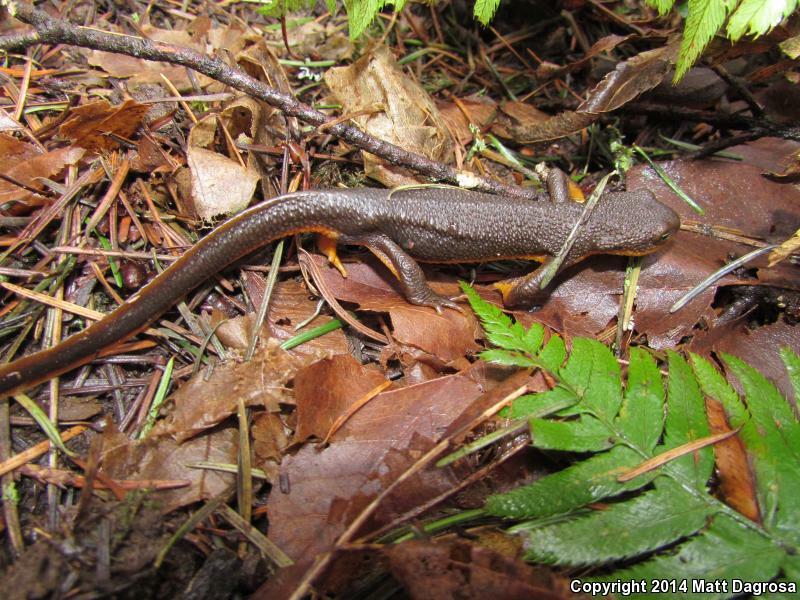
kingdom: Animalia
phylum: Chordata
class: Amphibia
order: Caudata
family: Salamandridae
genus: Taricha
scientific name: Taricha granulosa
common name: Roughskin newt
